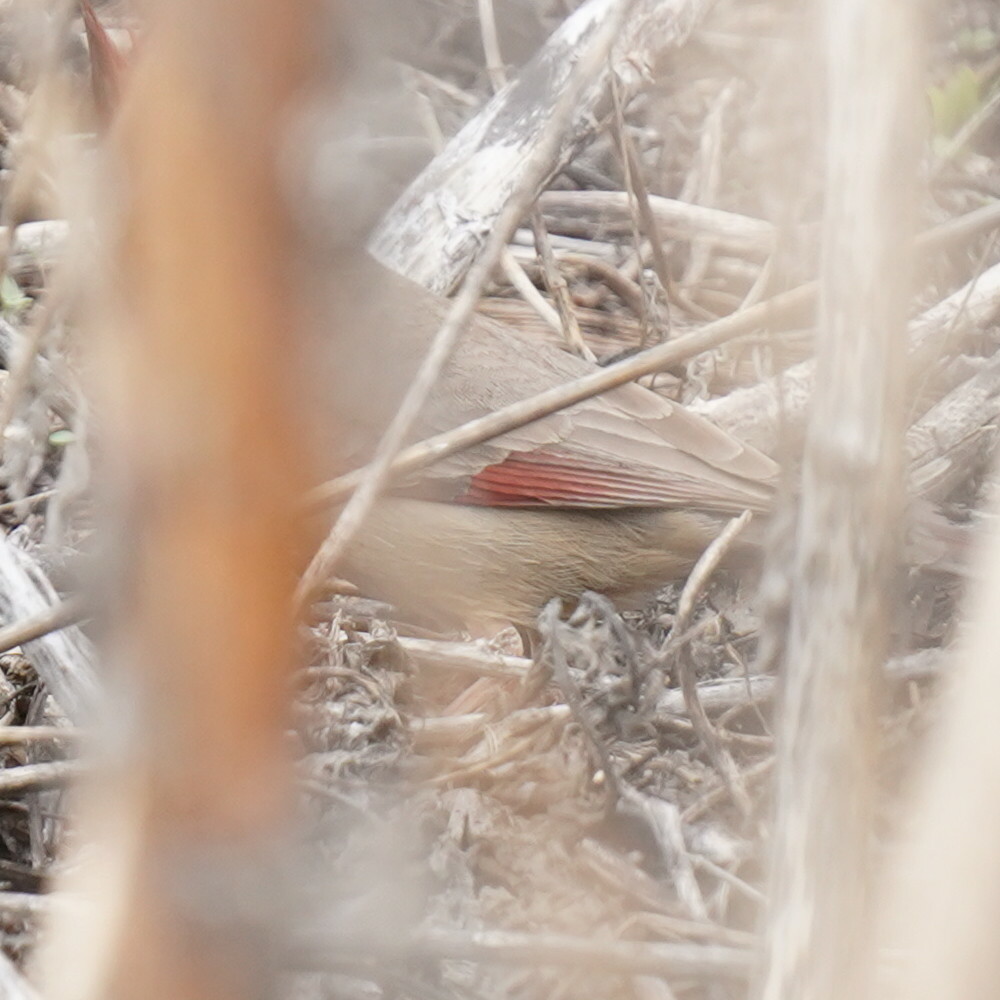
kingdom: Animalia
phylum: Chordata
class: Aves
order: Passeriformes
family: Cardinalidae
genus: Cardinalis
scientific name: Cardinalis sinuatus
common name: Pyrrhuloxia
